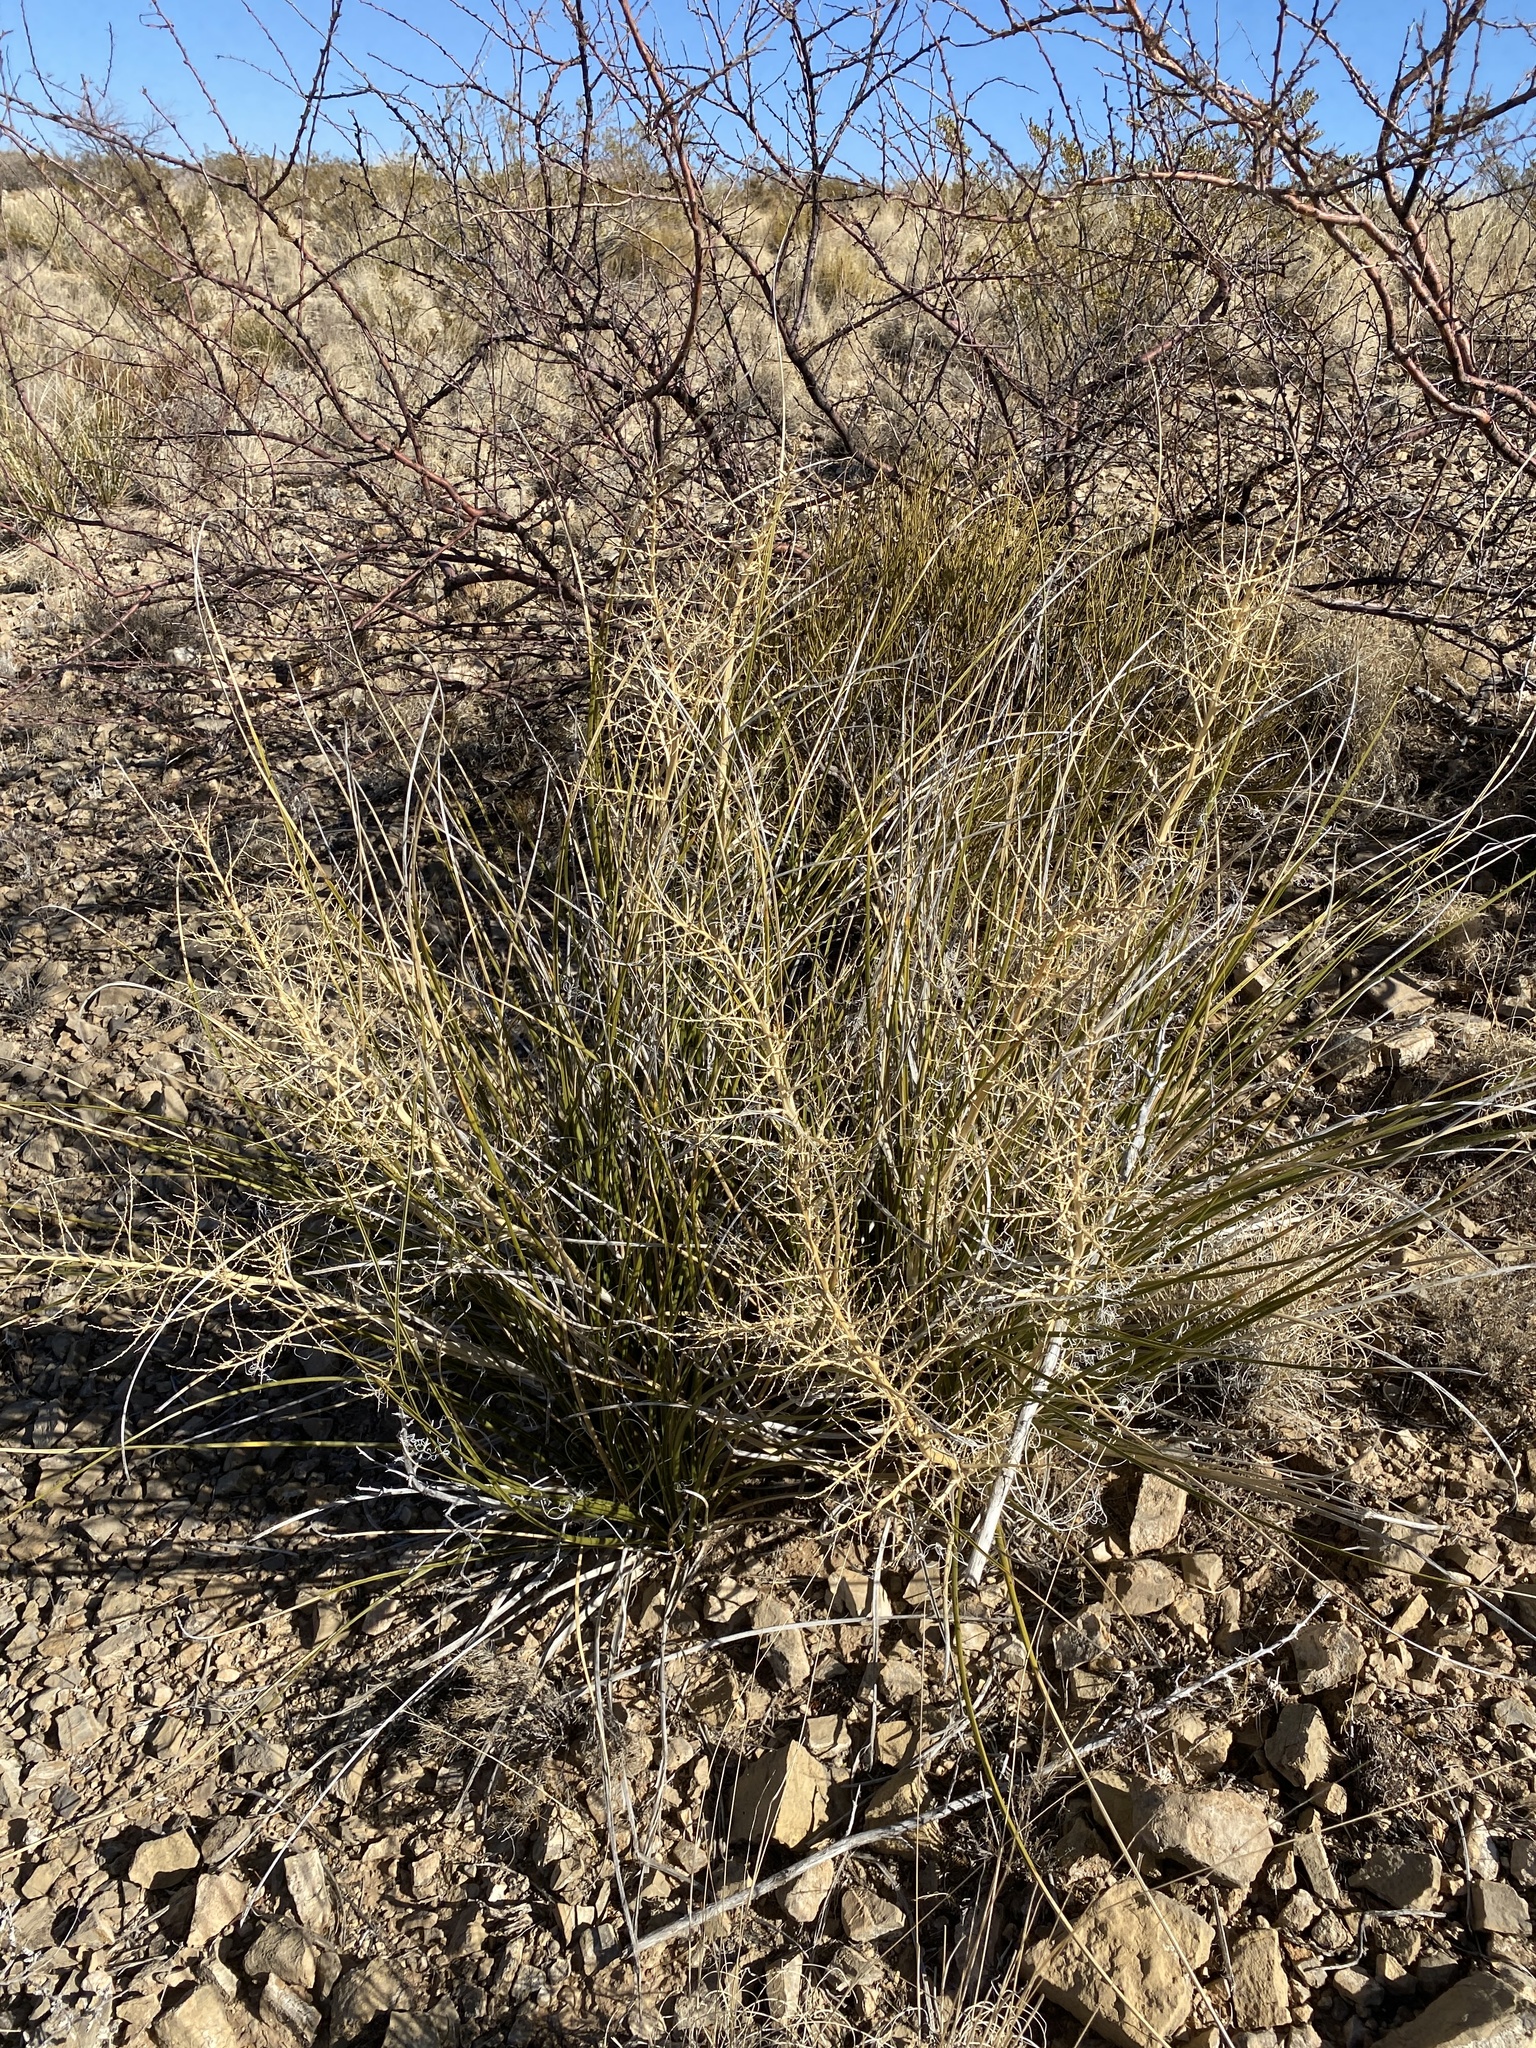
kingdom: Plantae
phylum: Tracheophyta
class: Liliopsida
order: Asparagales
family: Asparagaceae
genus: Nolina
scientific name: Nolina microcarpa
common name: Bear-grass
